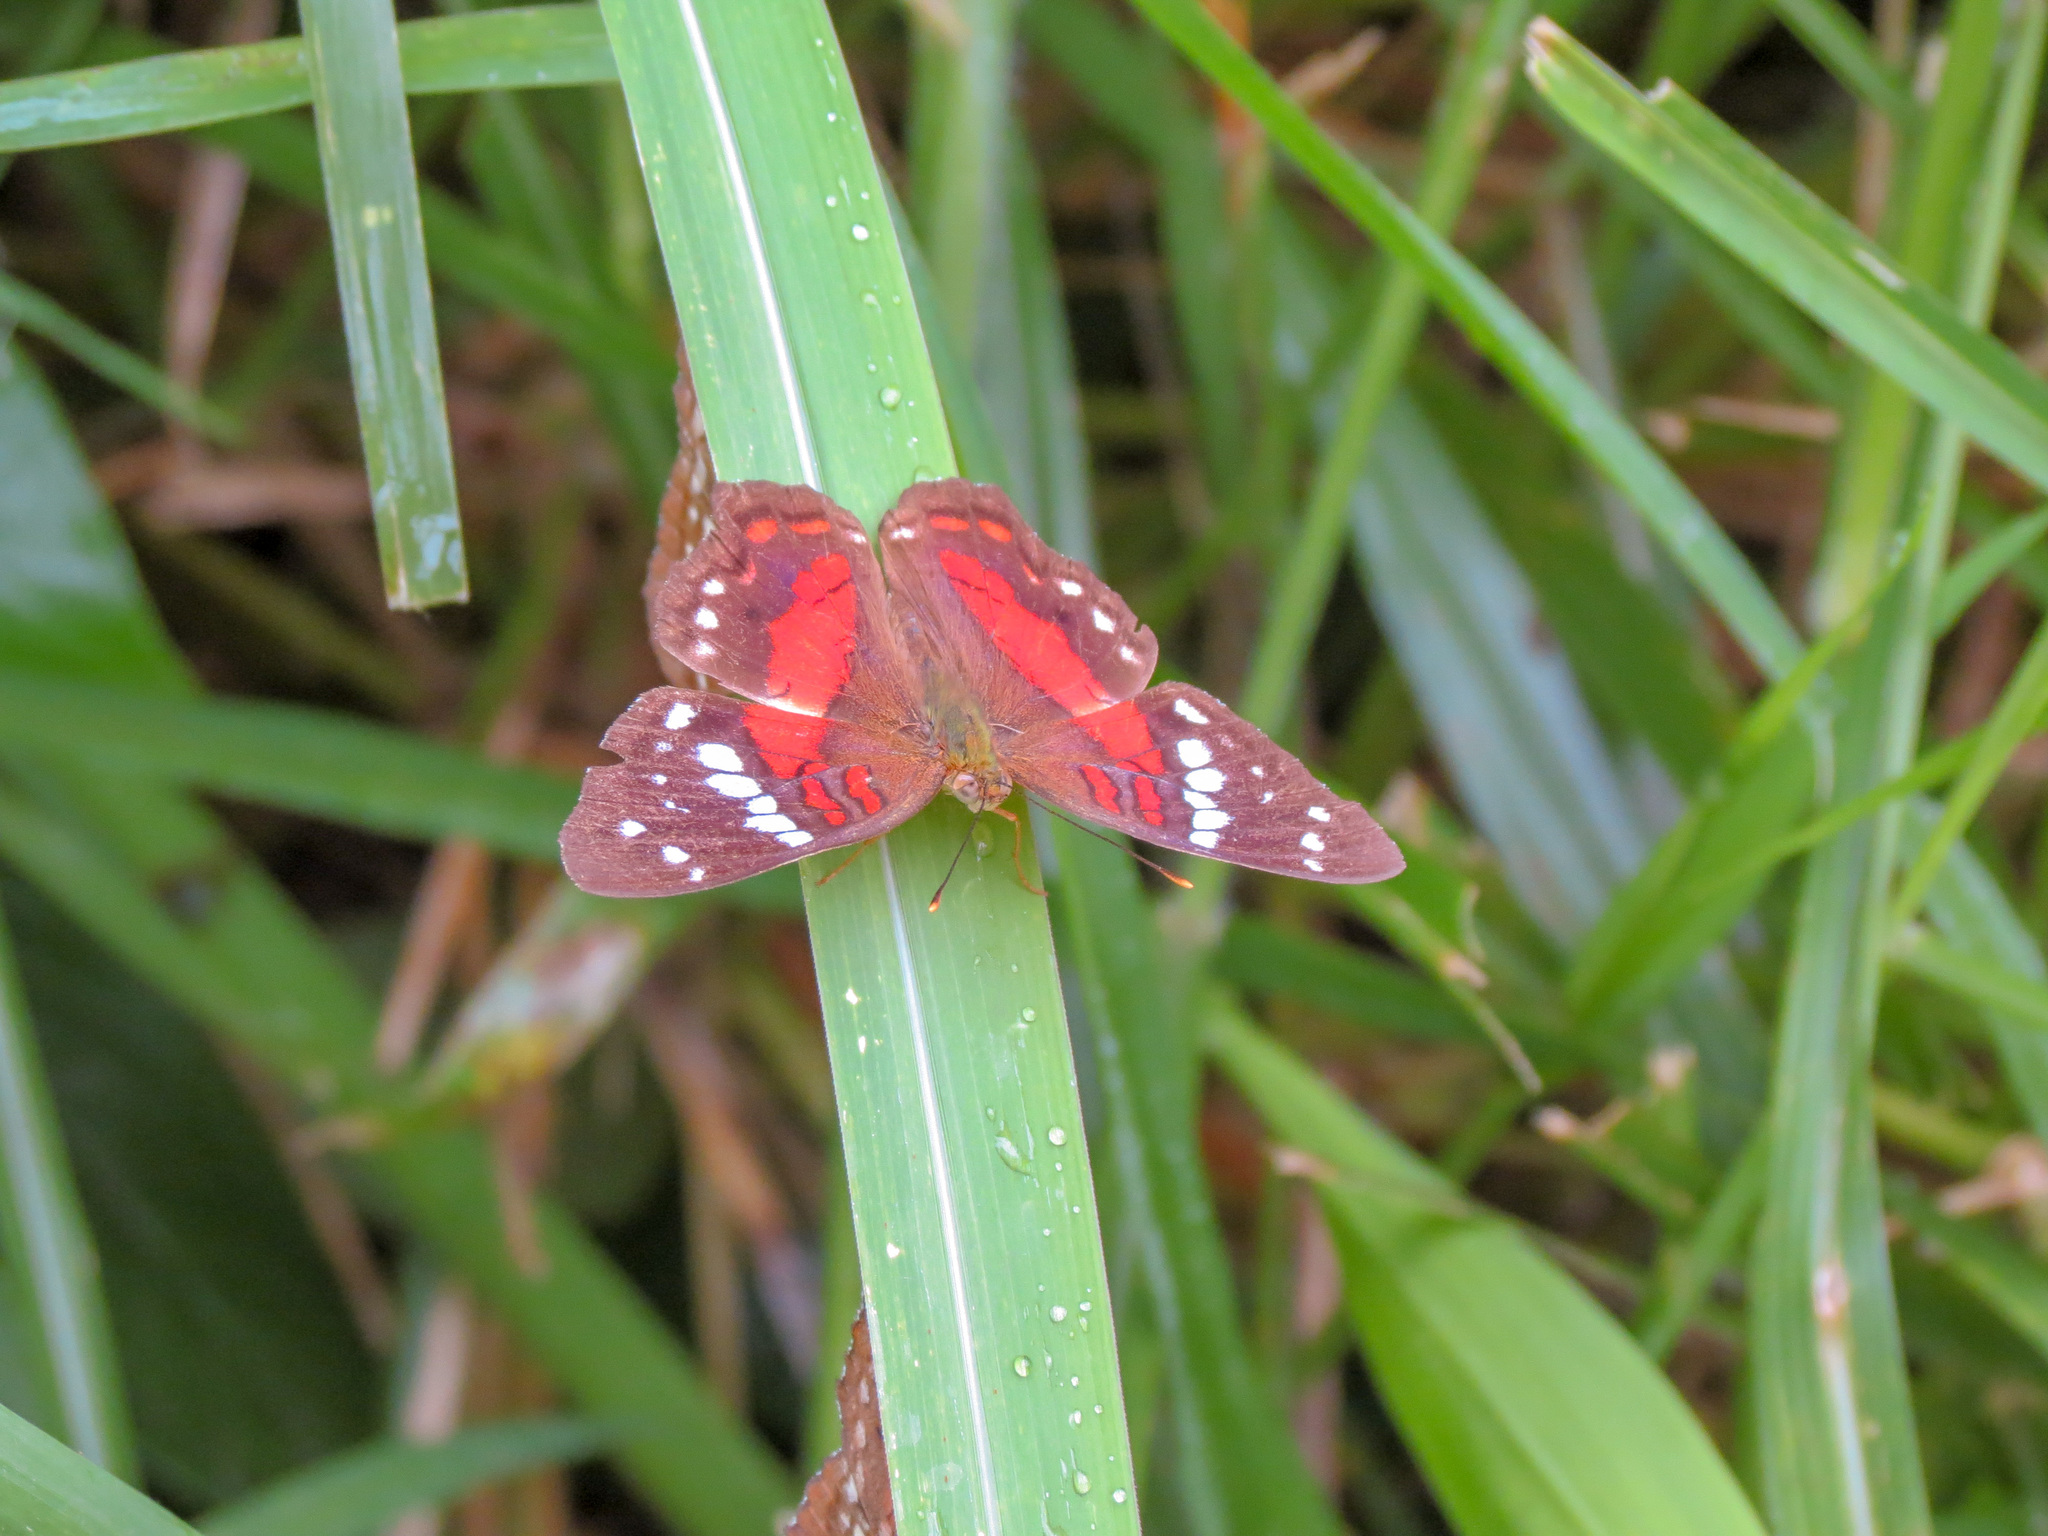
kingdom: Animalia
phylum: Arthropoda
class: Insecta
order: Lepidoptera
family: Nymphalidae
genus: Anartia
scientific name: Anartia amathea
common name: Red peacock
